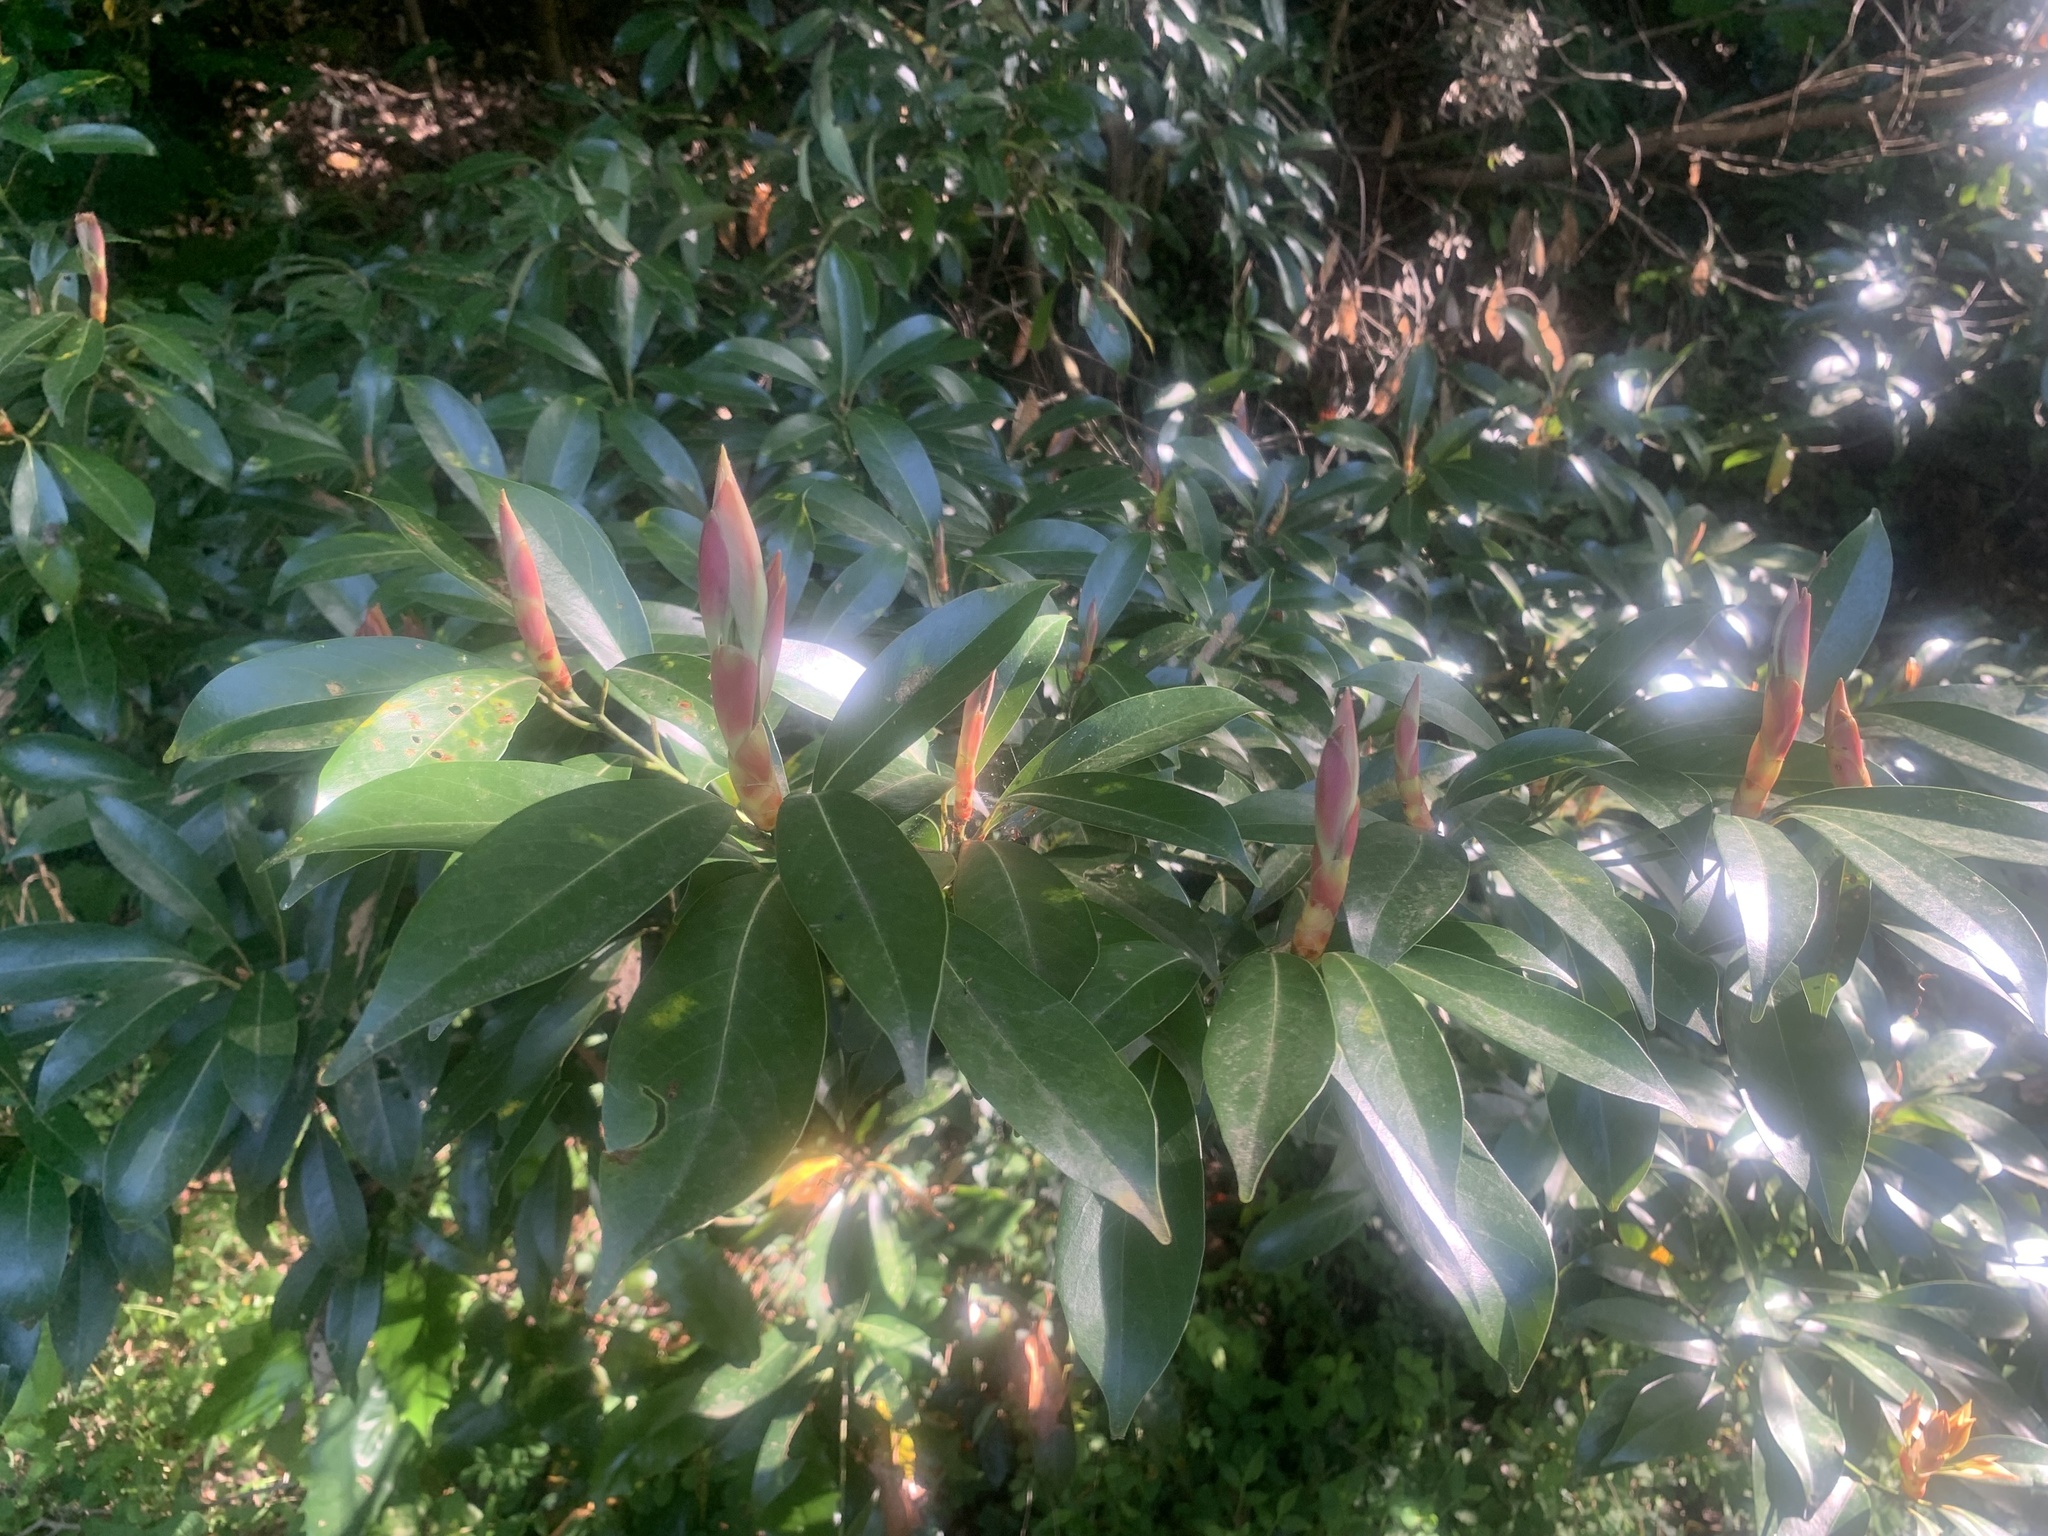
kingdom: Plantae
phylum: Tracheophyta
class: Magnoliopsida
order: Laurales
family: Lauraceae
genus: Machilus
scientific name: Machilus thunbergii
